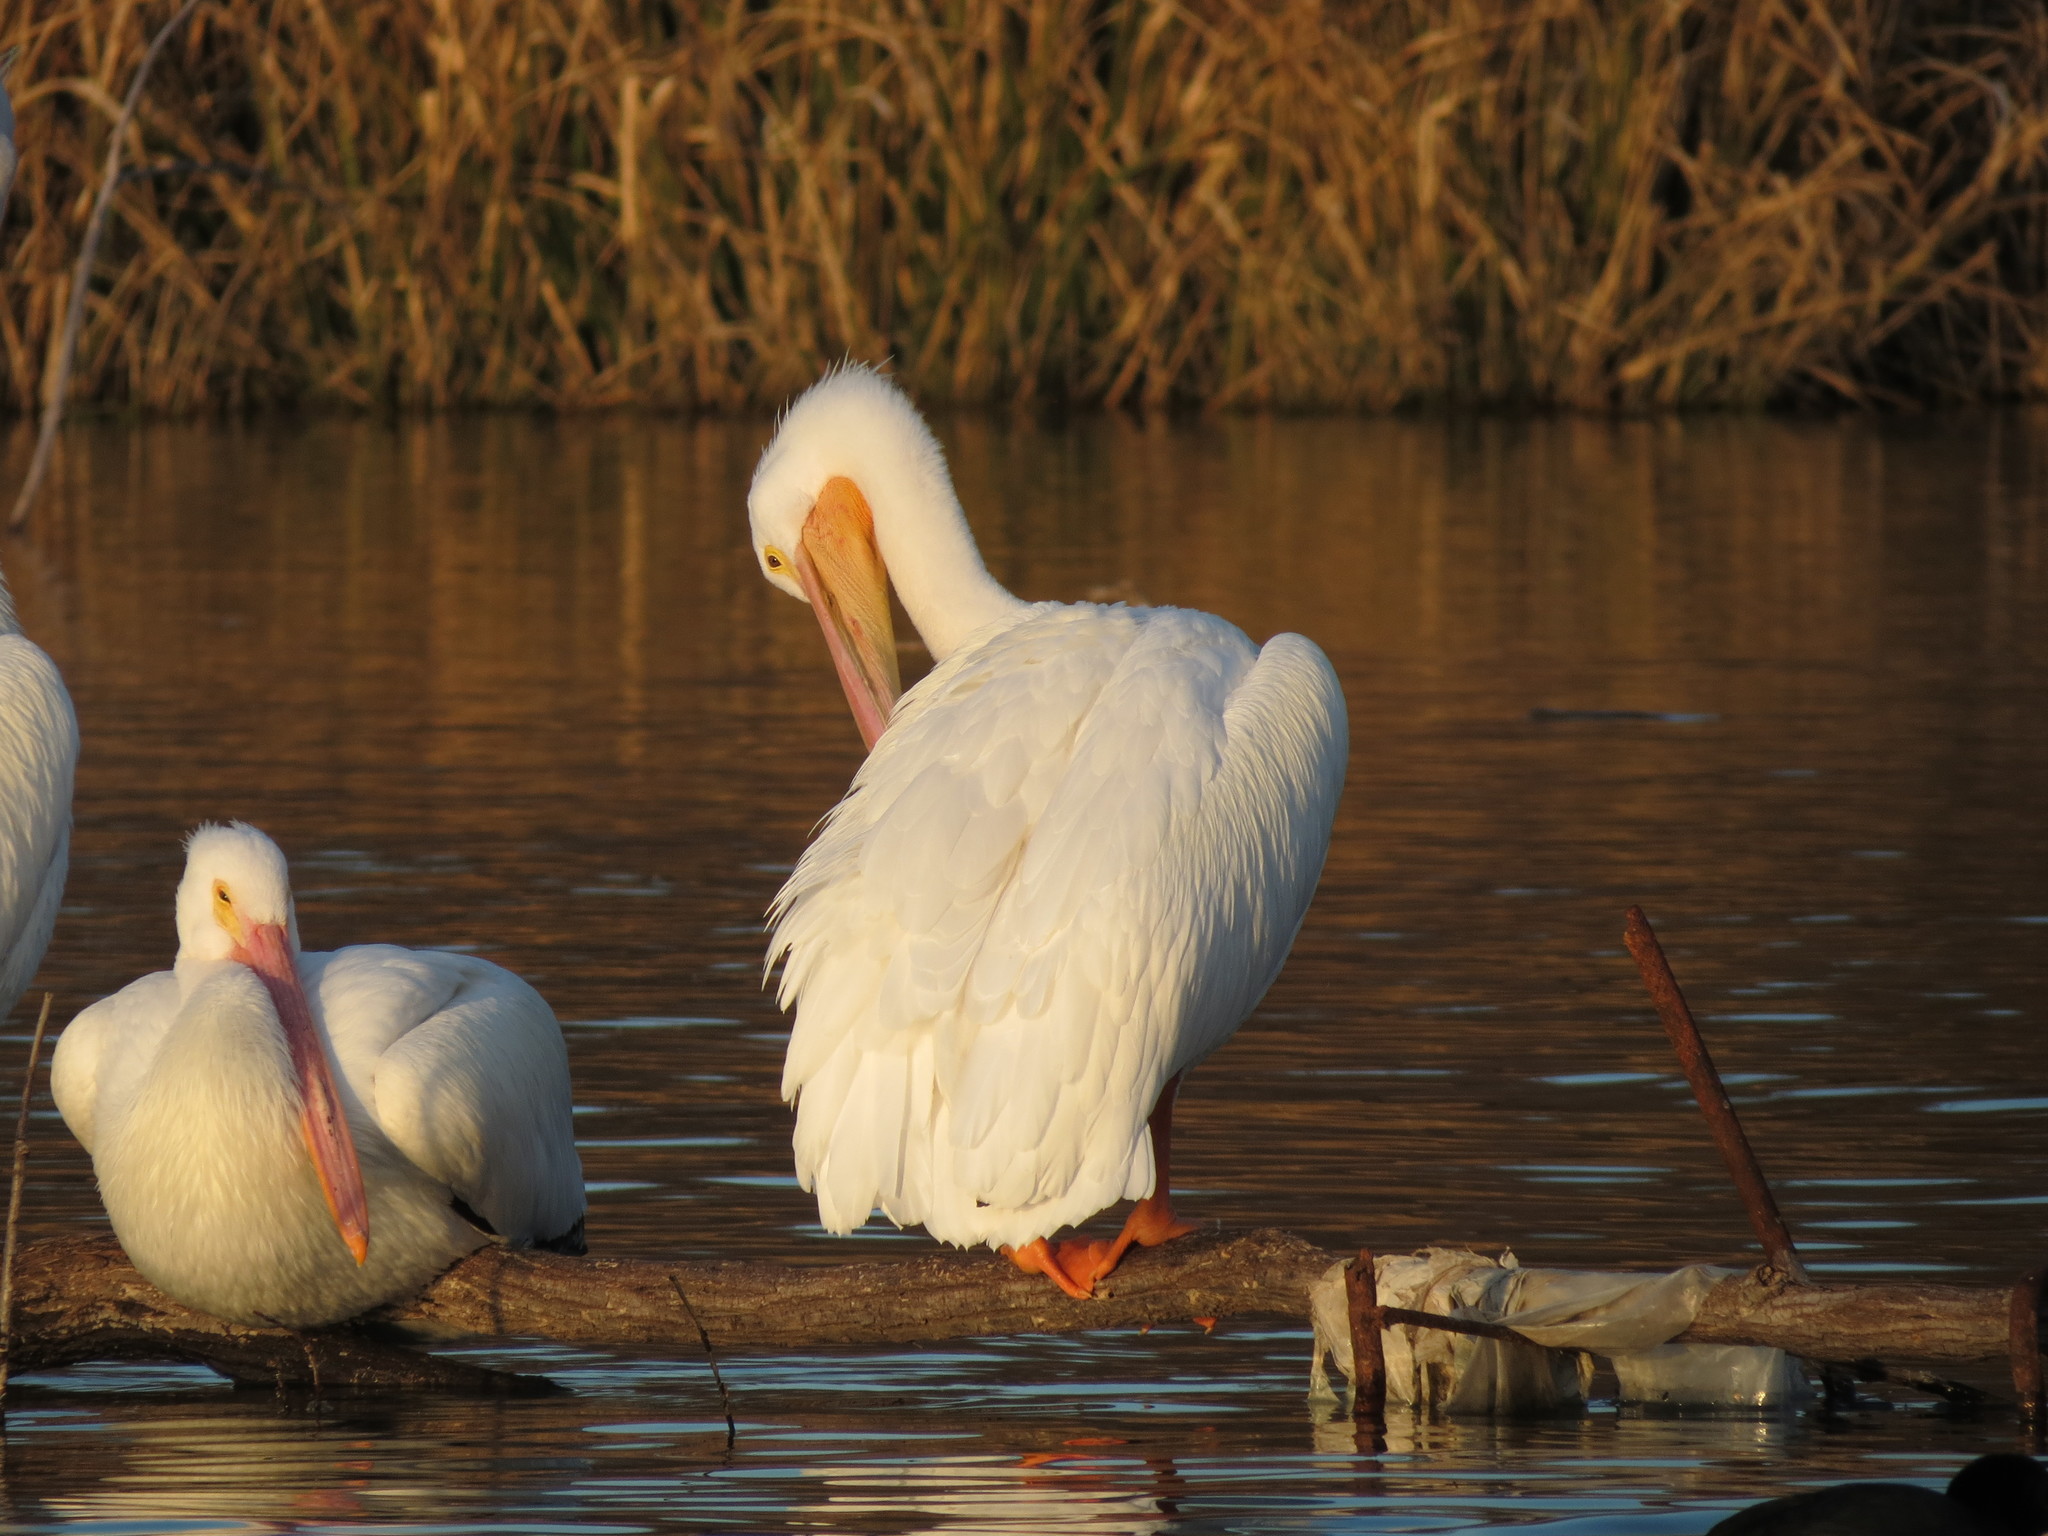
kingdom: Animalia
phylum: Chordata
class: Aves
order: Pelecaniformes
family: Pelecanidae
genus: Pelecanus
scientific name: Pelecanus erythrorhynchos
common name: American white pelican
